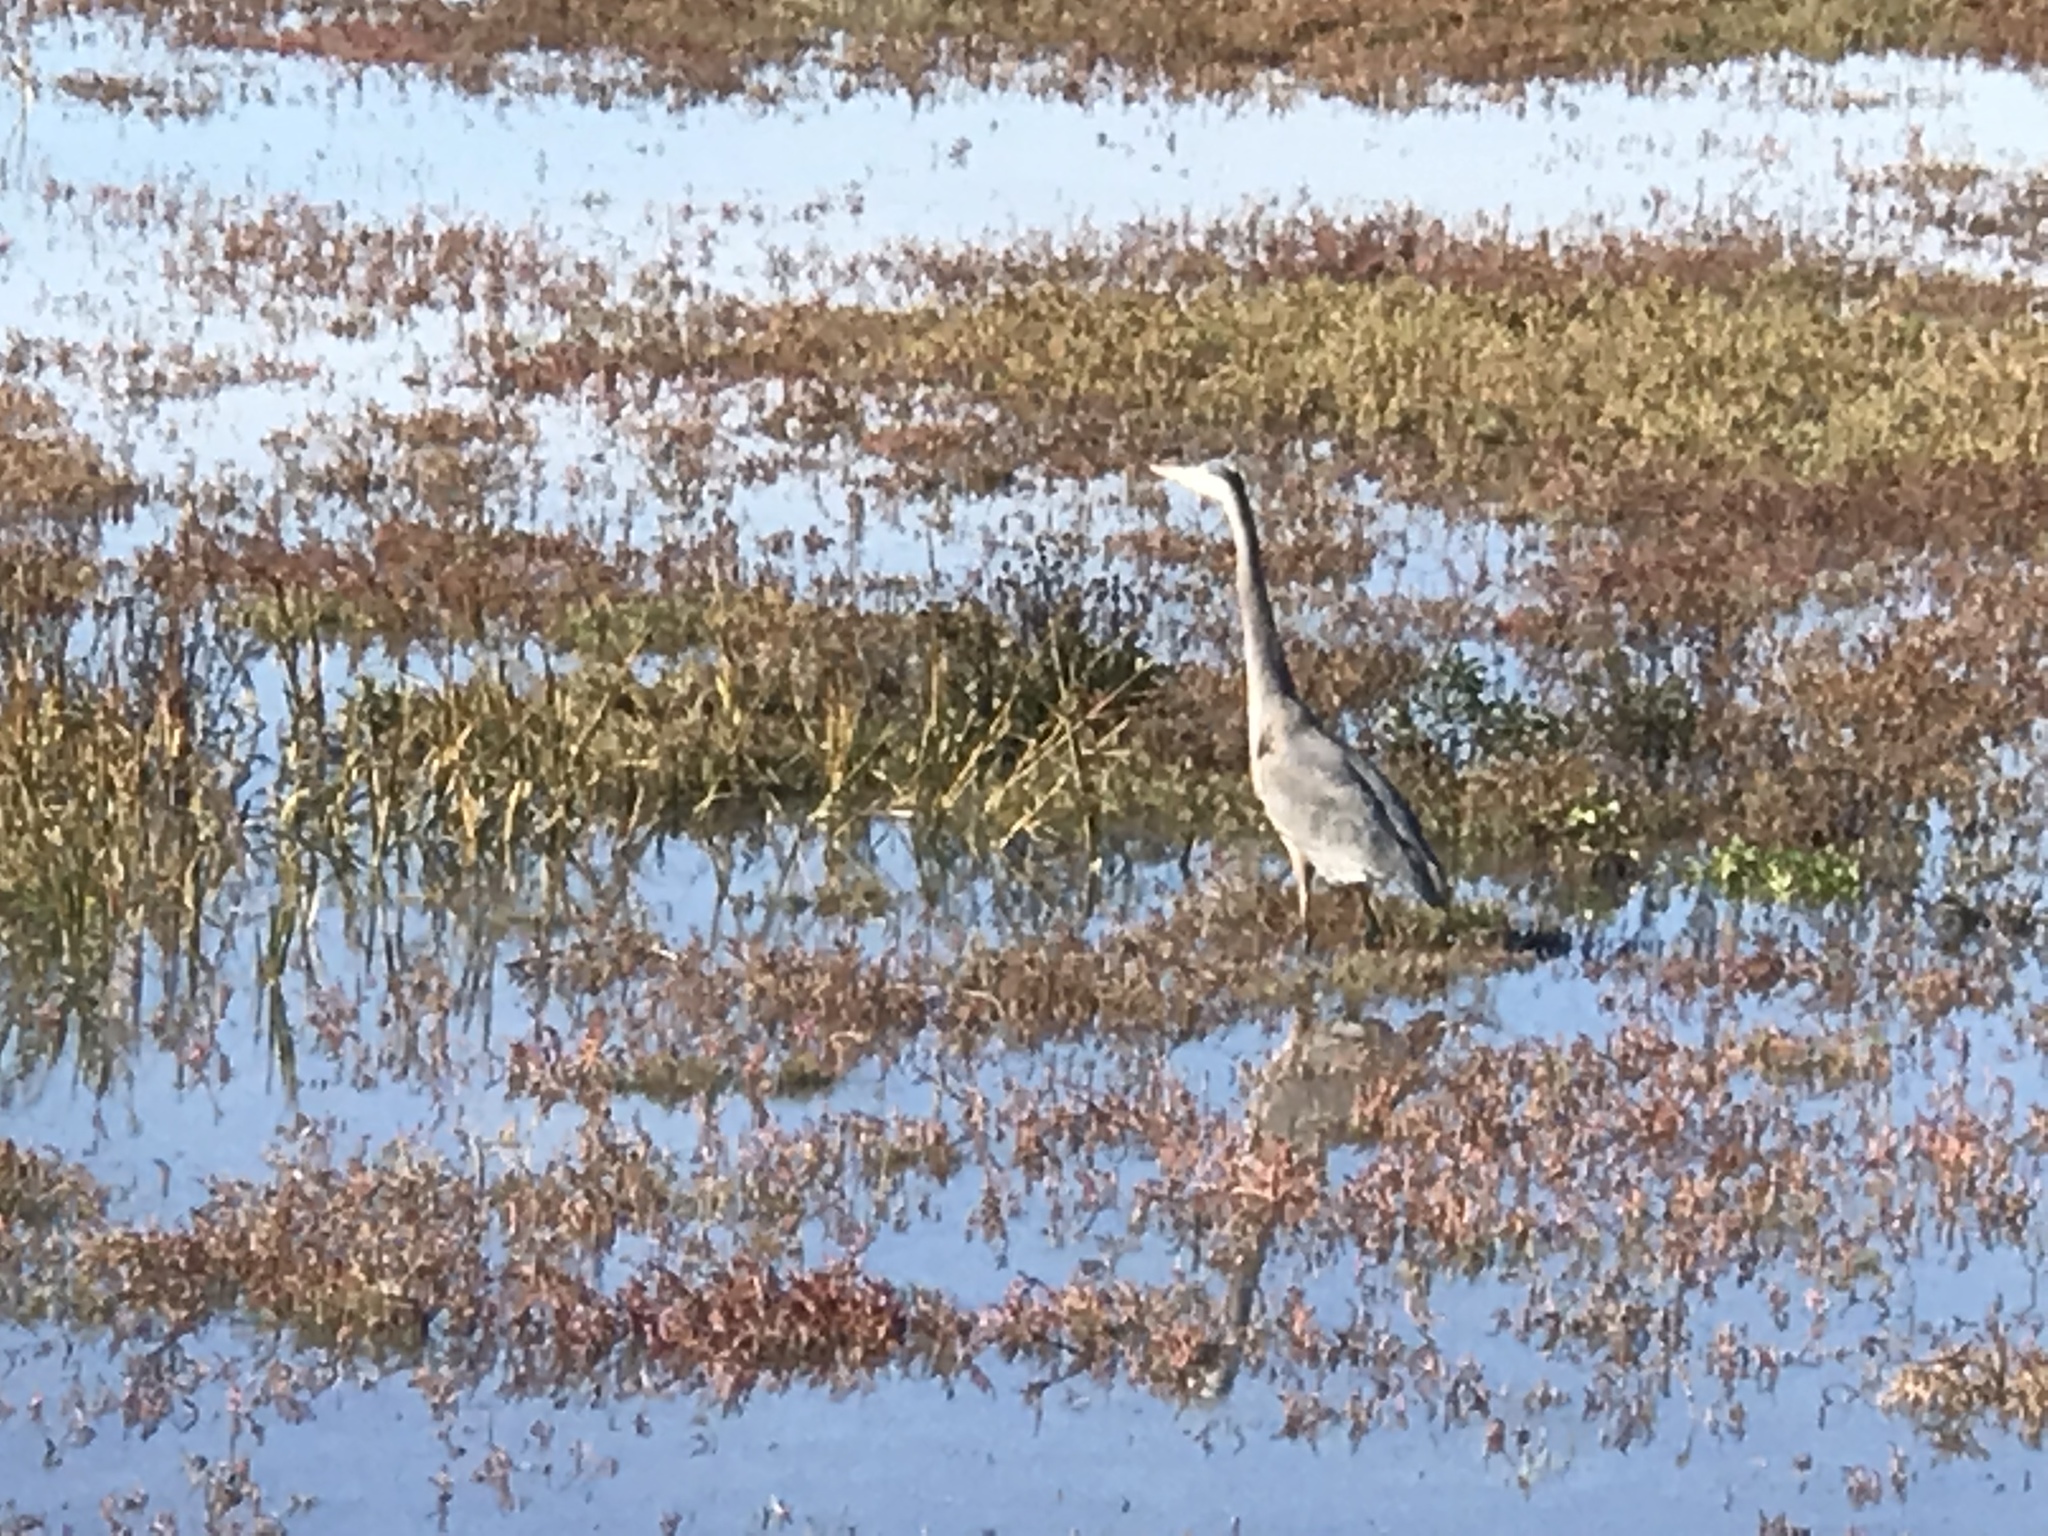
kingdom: Animalia
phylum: Chordata
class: Aves
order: Pelecaniformes
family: Ardeidae
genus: Ardea
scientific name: Ardea herodias
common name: Great blue heron
